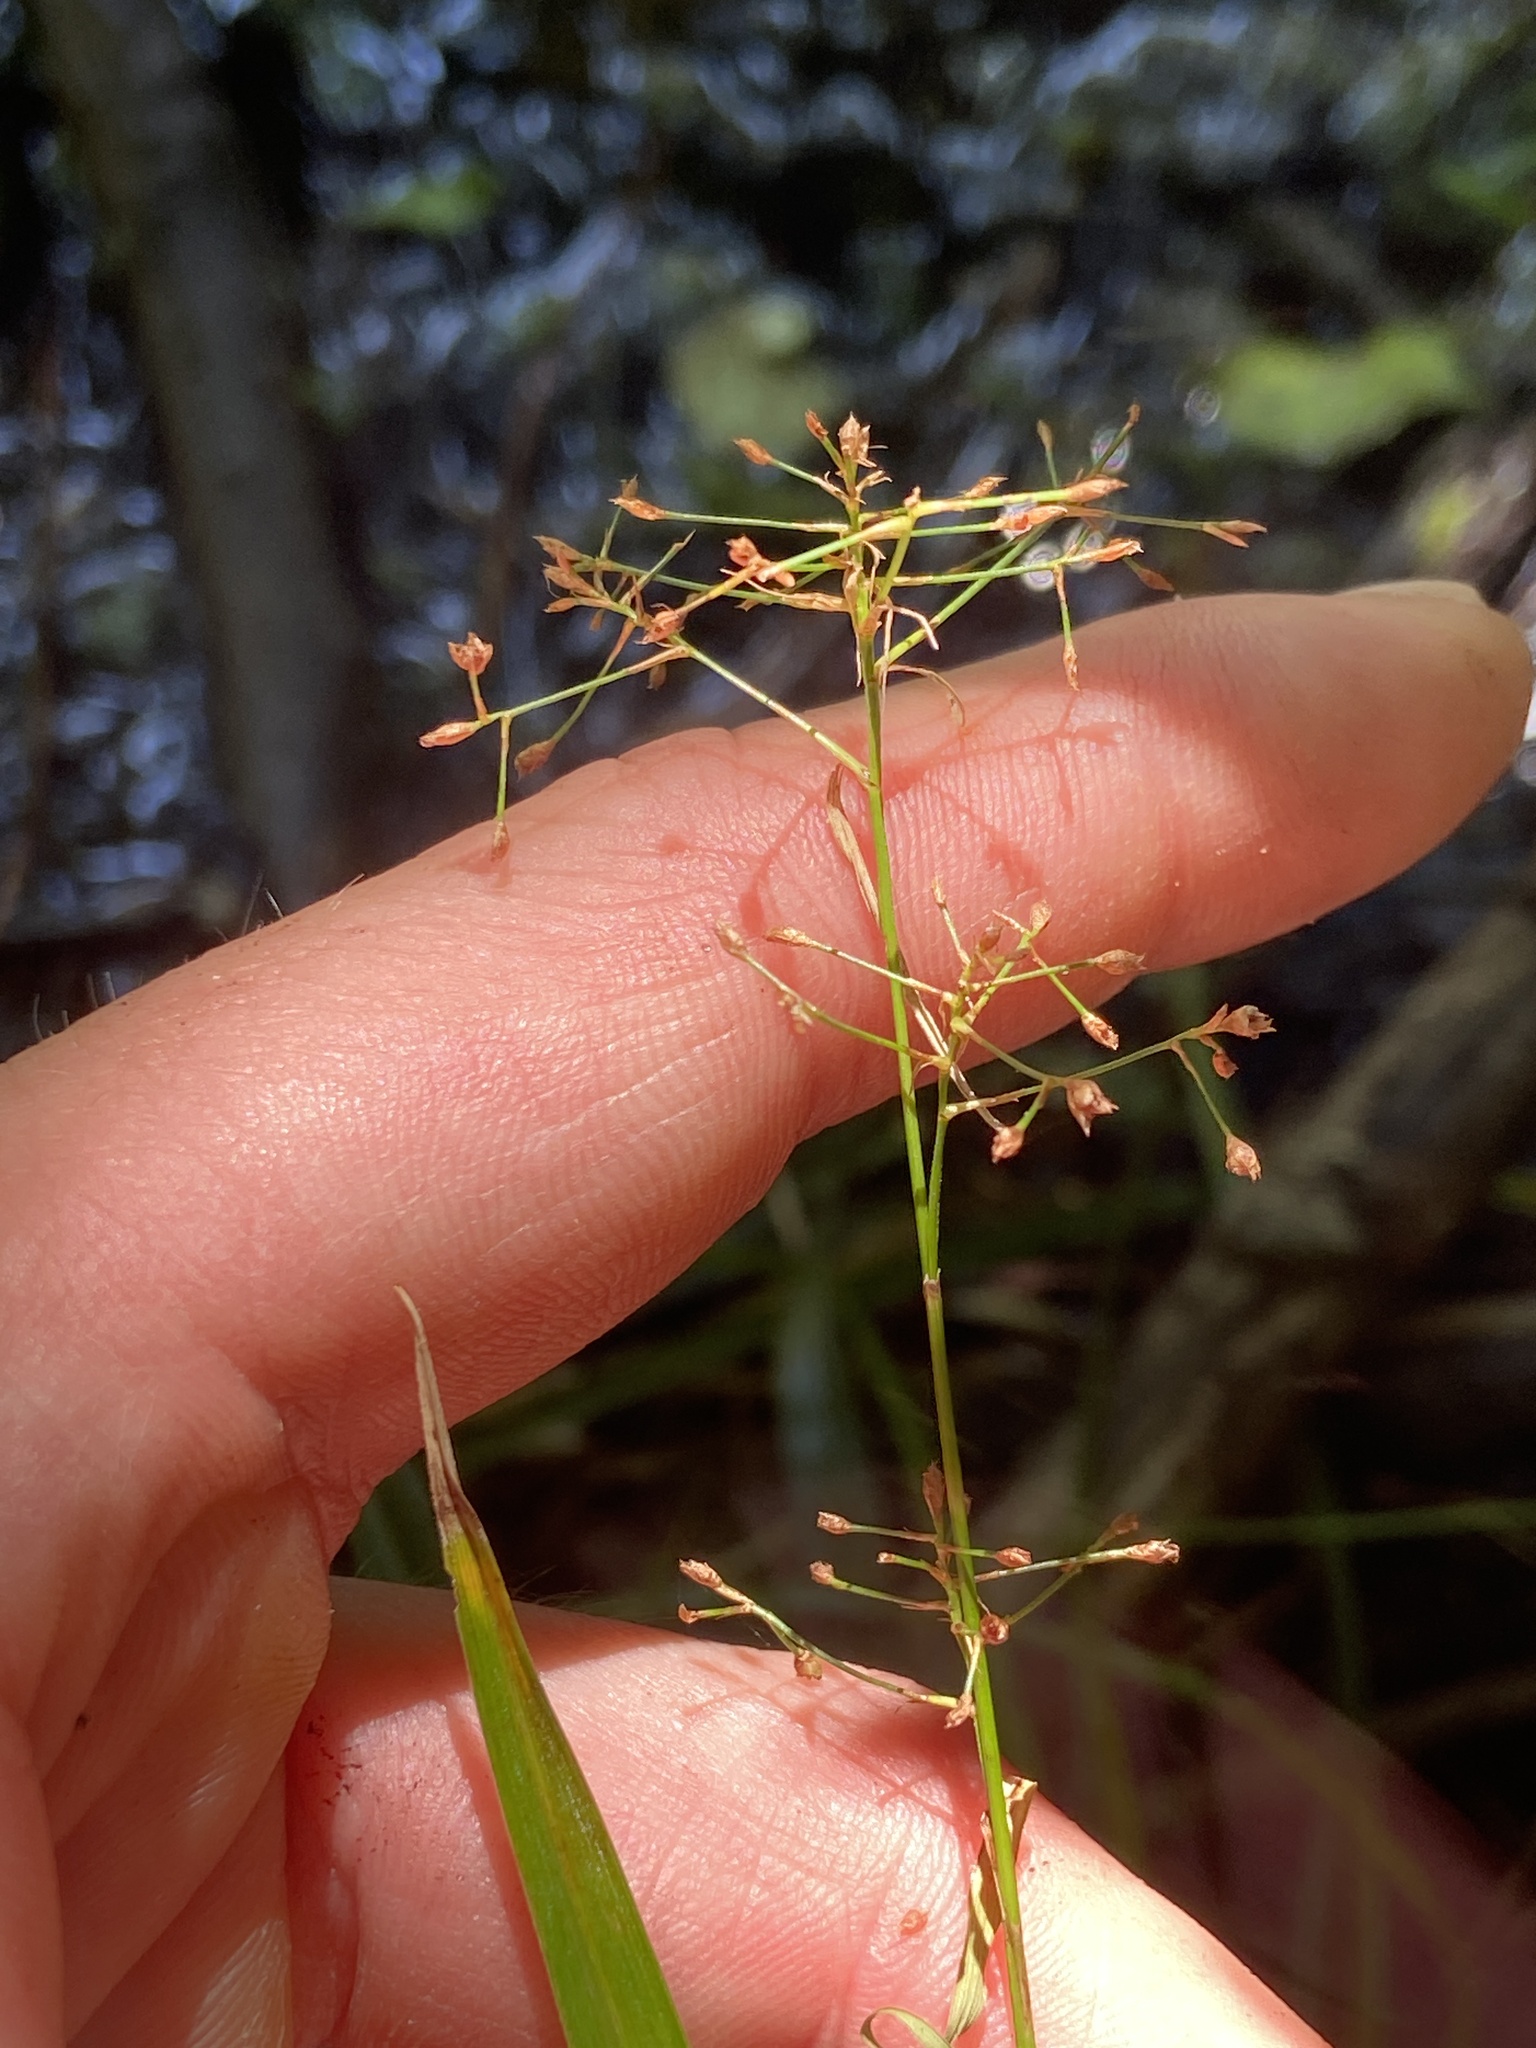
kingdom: Plantae
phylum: Tracheophyta
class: Liliopsida
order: Poales
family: Cyperaceae
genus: Rhynchospora
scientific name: Rhynchospora miliacea
